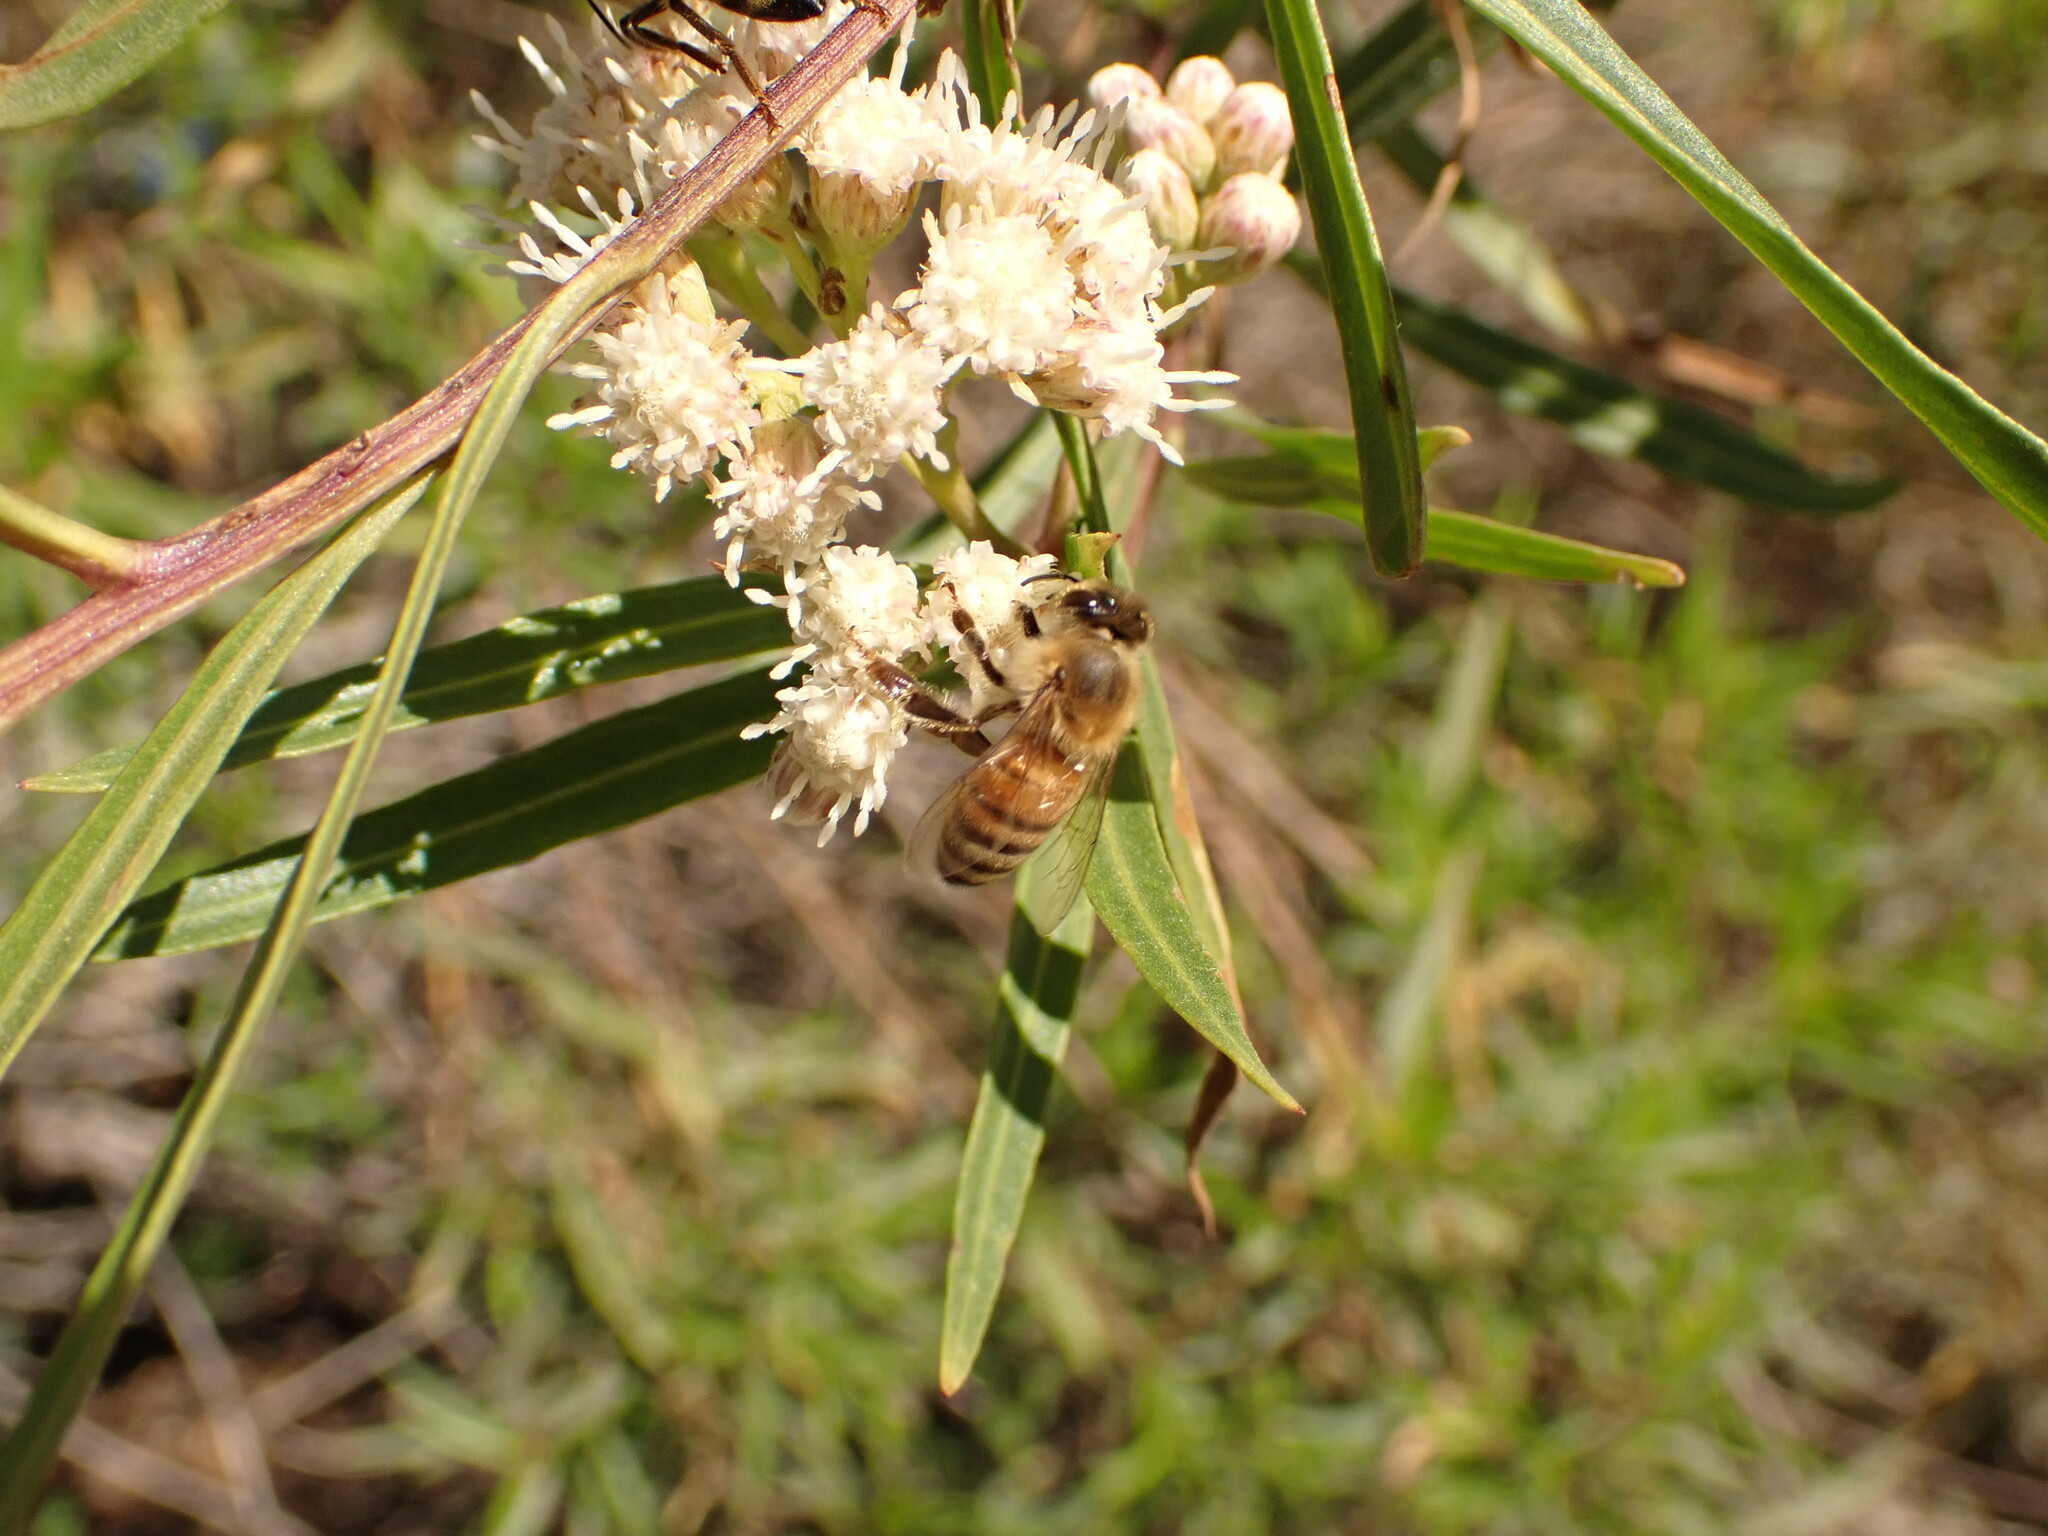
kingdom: Plantae
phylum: Tracheophyta
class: Magnoliopsida
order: Asterales
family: Asteraceae
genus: Baccharis
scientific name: Baccharis salicifolia
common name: Sticky baccharis
